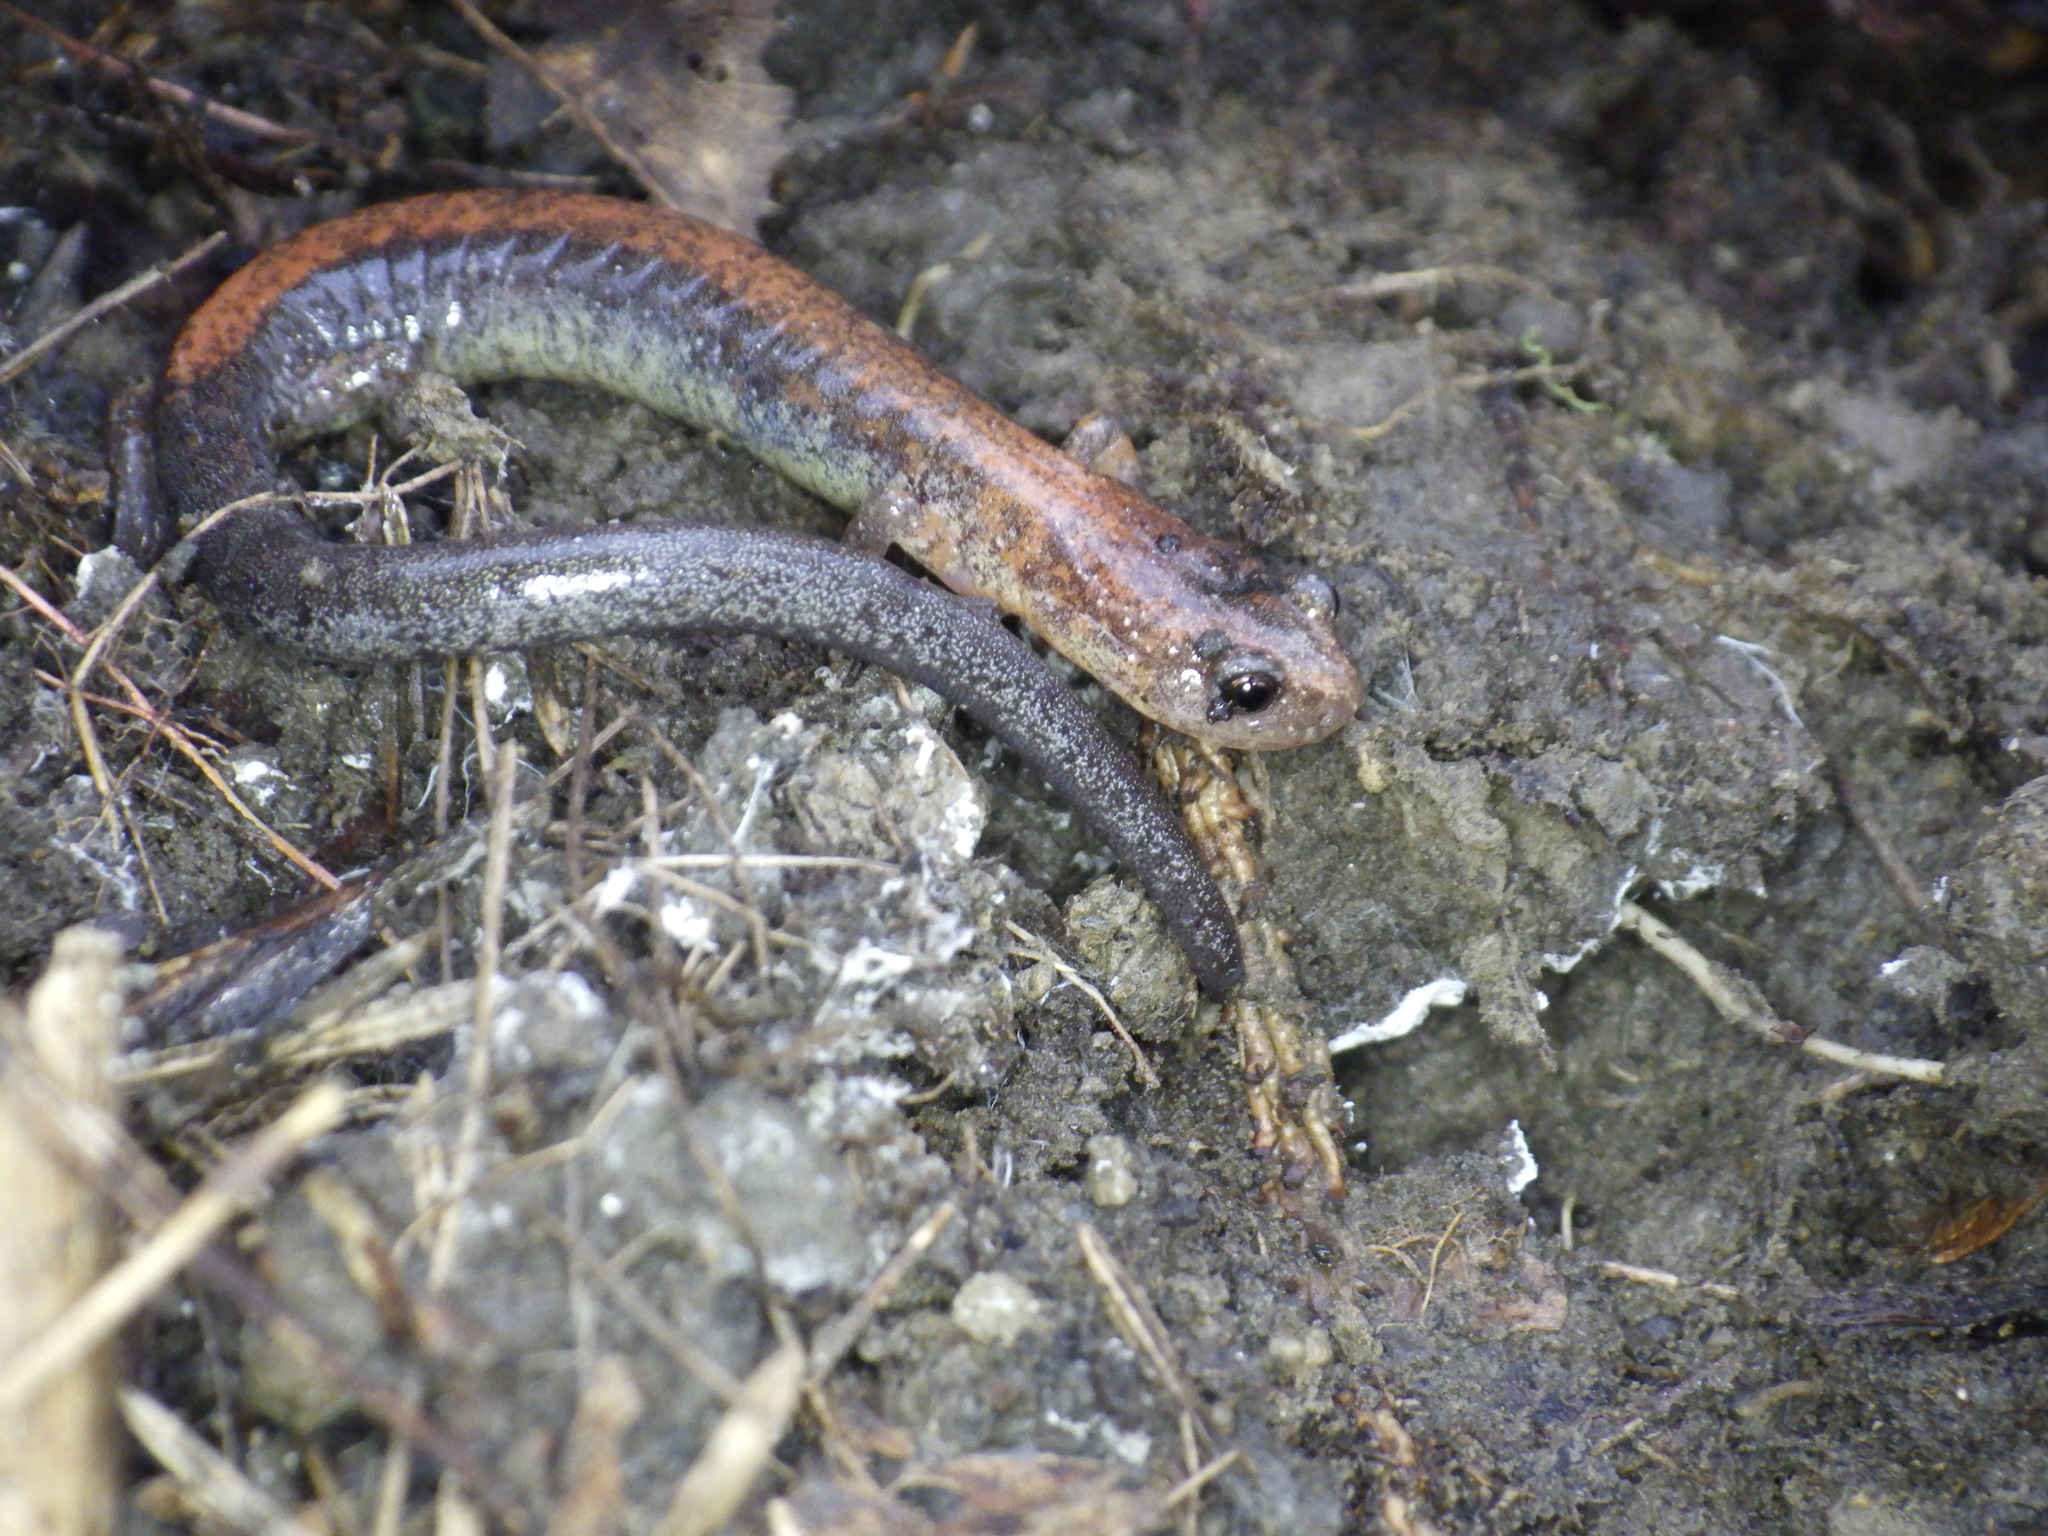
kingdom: Animalia
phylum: Chordata
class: Amphibia
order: Caudata
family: Plethodontidae
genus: Plethodon
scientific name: Plethodon cinereus
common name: Redback salamander
